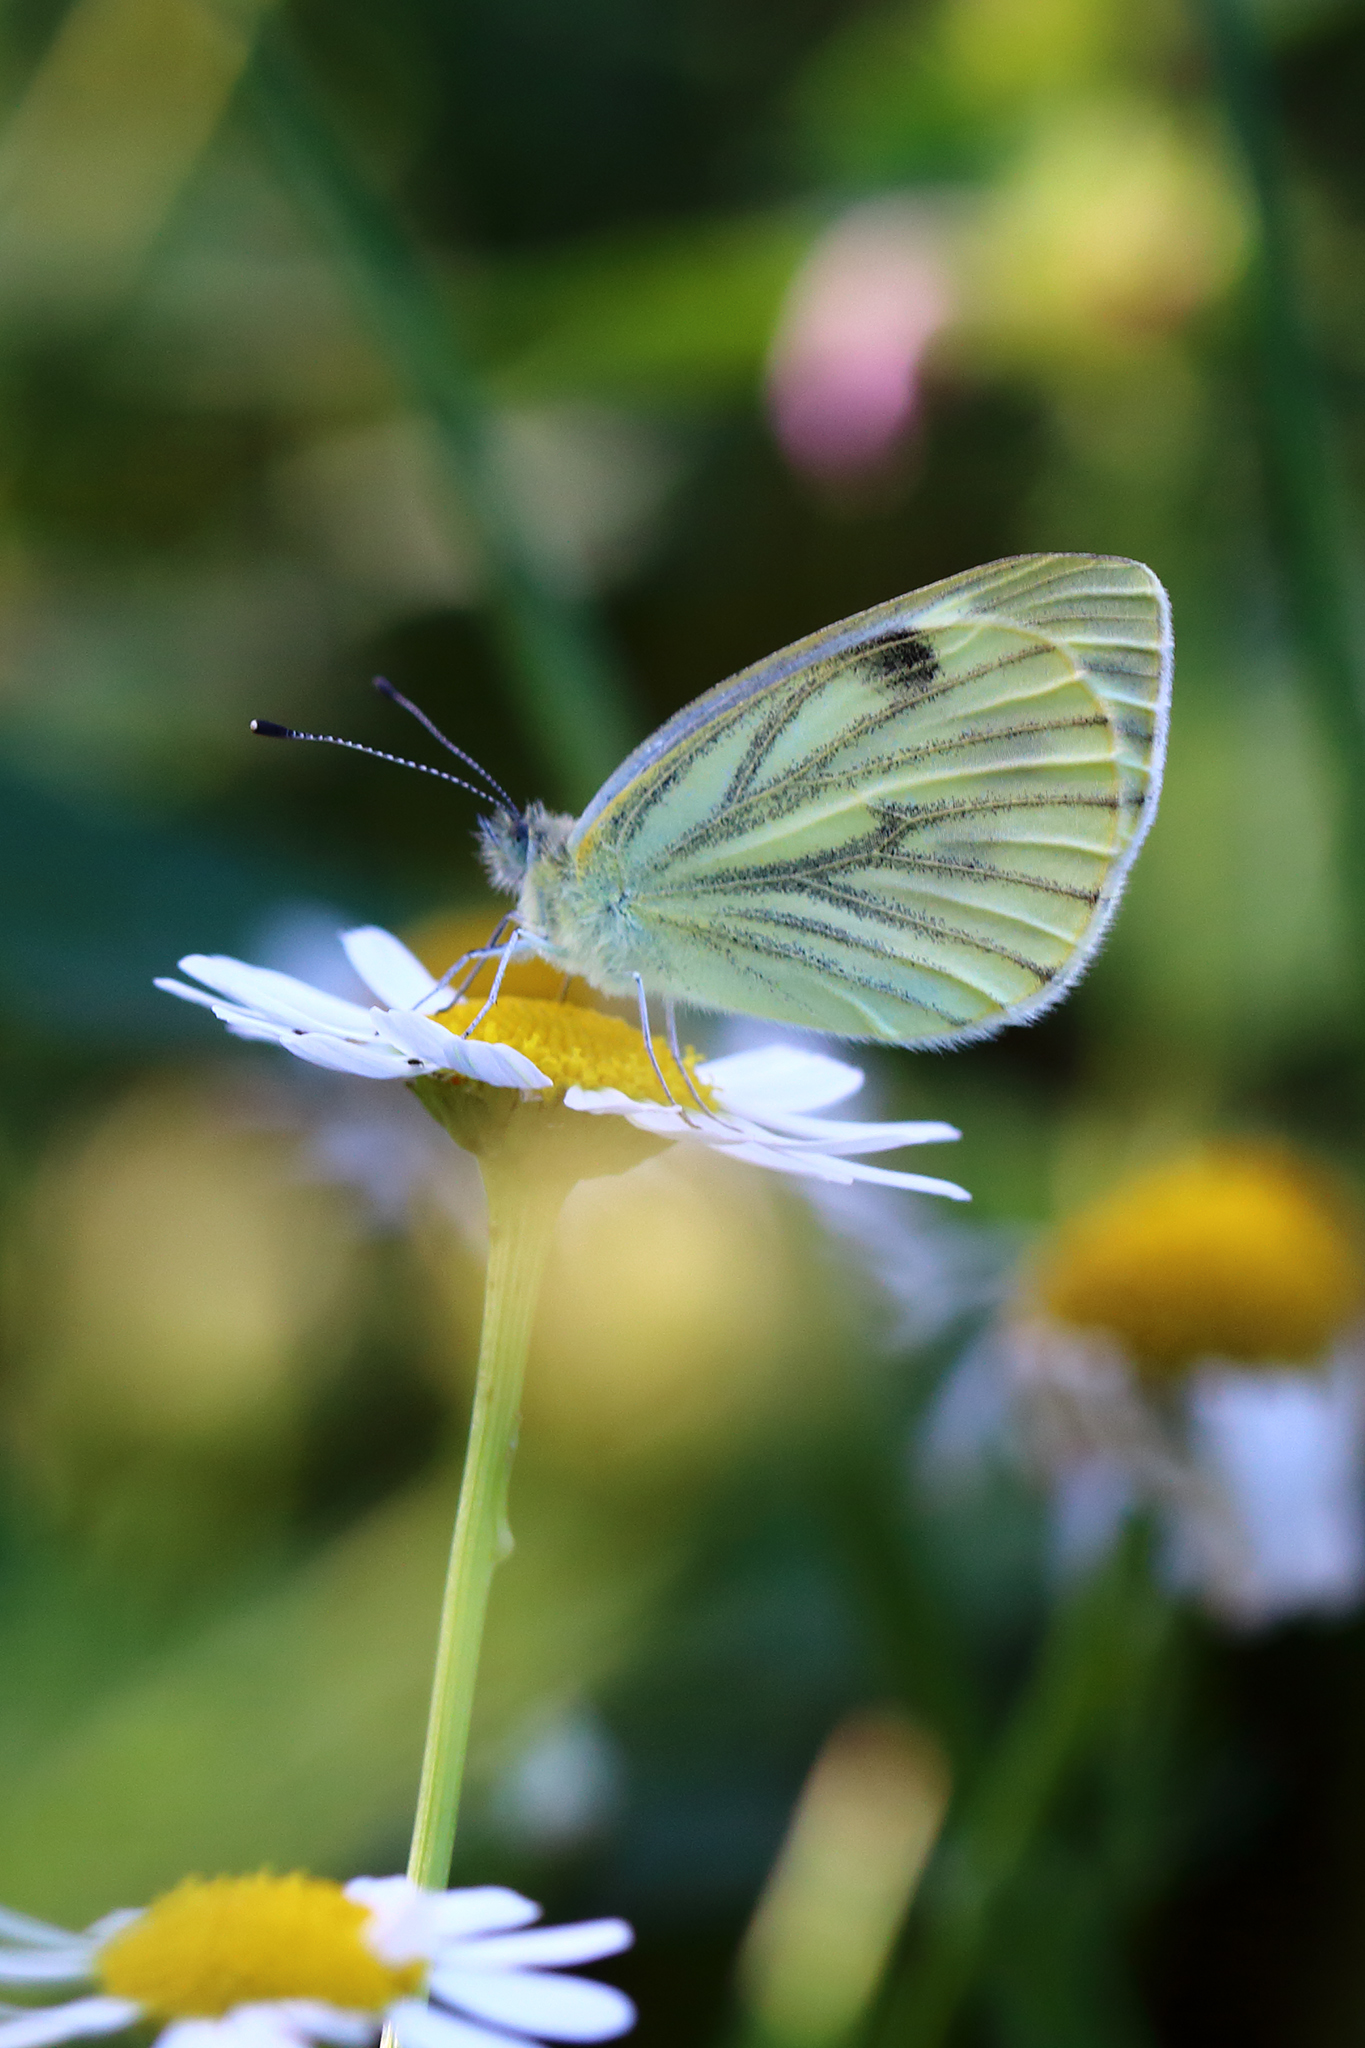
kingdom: Animalia
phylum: Arthropoda
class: Insecta
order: Lepidoptera
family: Pieridae
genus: Pieris
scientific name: Pieris napi
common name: Green-veined white
